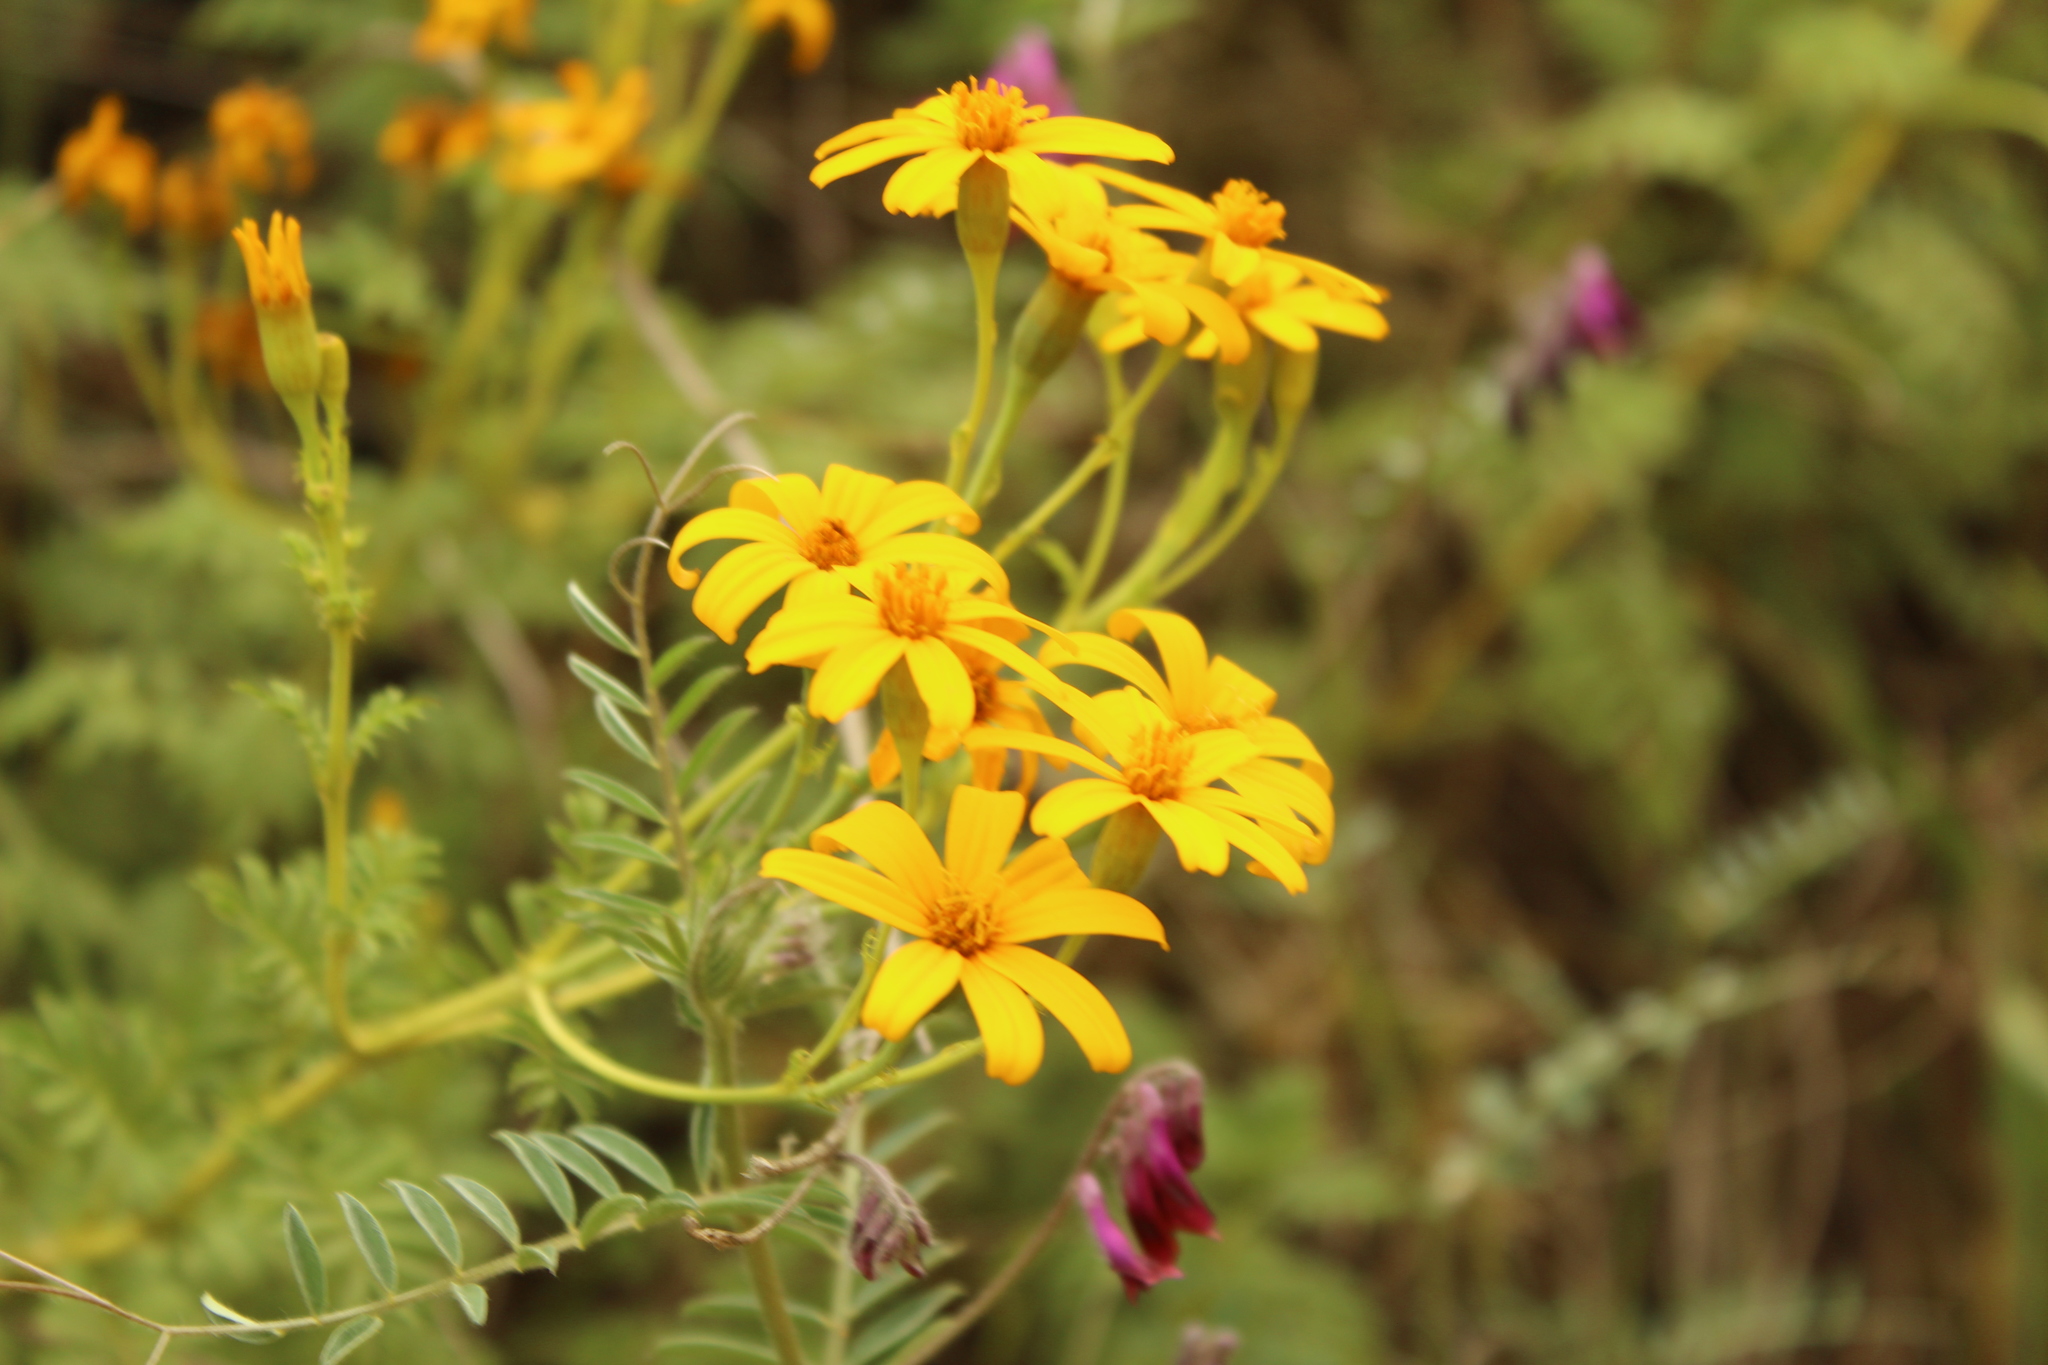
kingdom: Plantae
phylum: Tracheophyta
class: Magnoliopsida
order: Asterales
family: Asteraceae
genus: Tagetes
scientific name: Tagetes zypaquirensis
